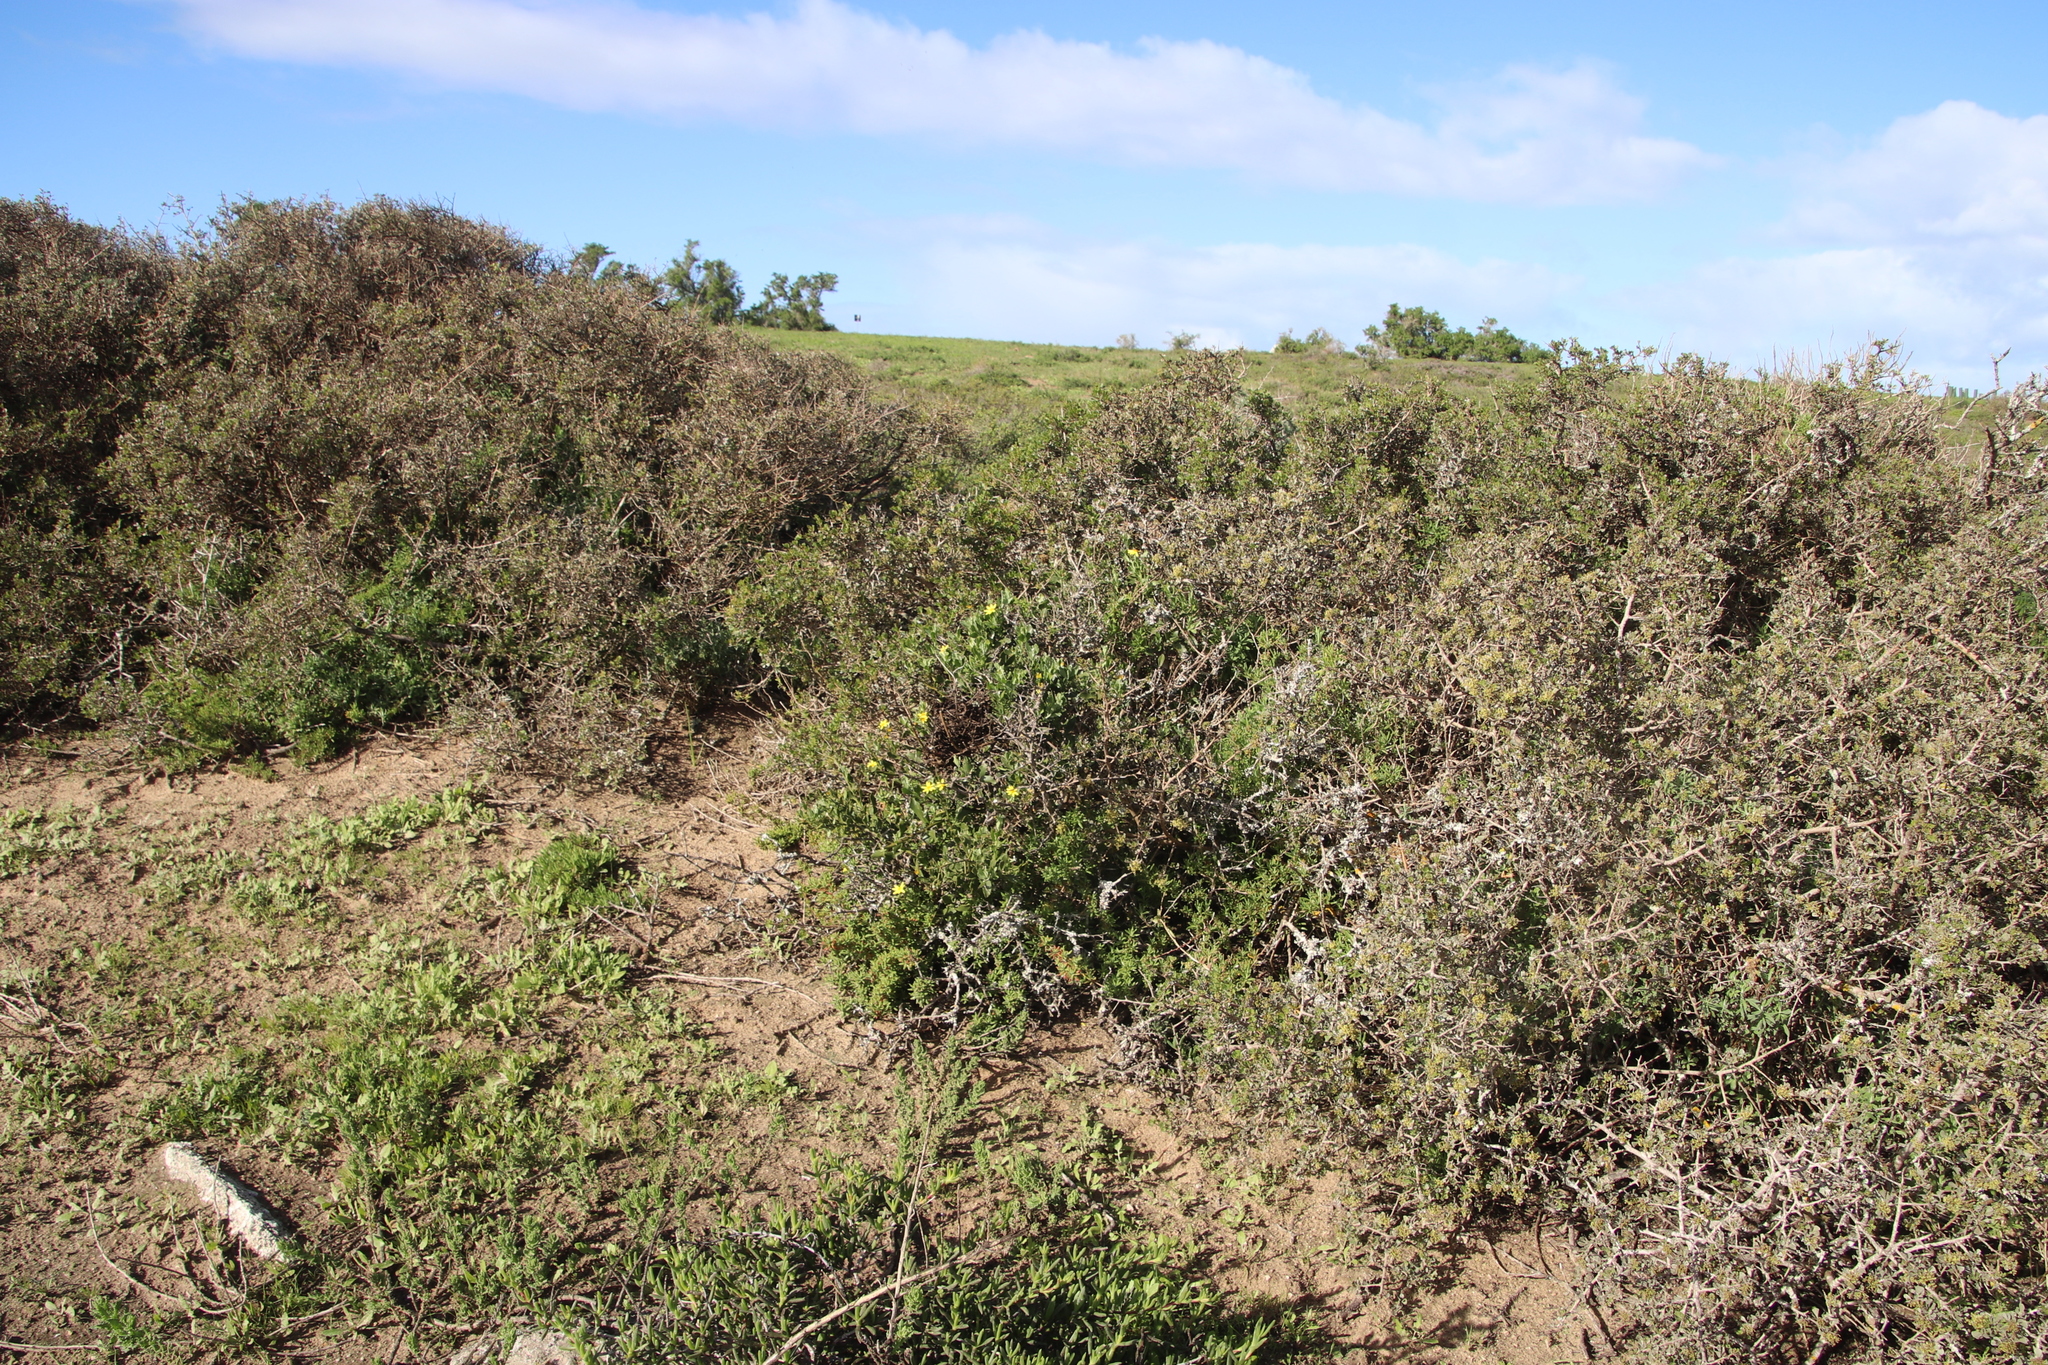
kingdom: Plantae
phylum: Tracheophyta
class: Magnoliopsida
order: Asterales
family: Asteraceae
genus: Osteospermum
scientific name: Osteospermum moniliferum
